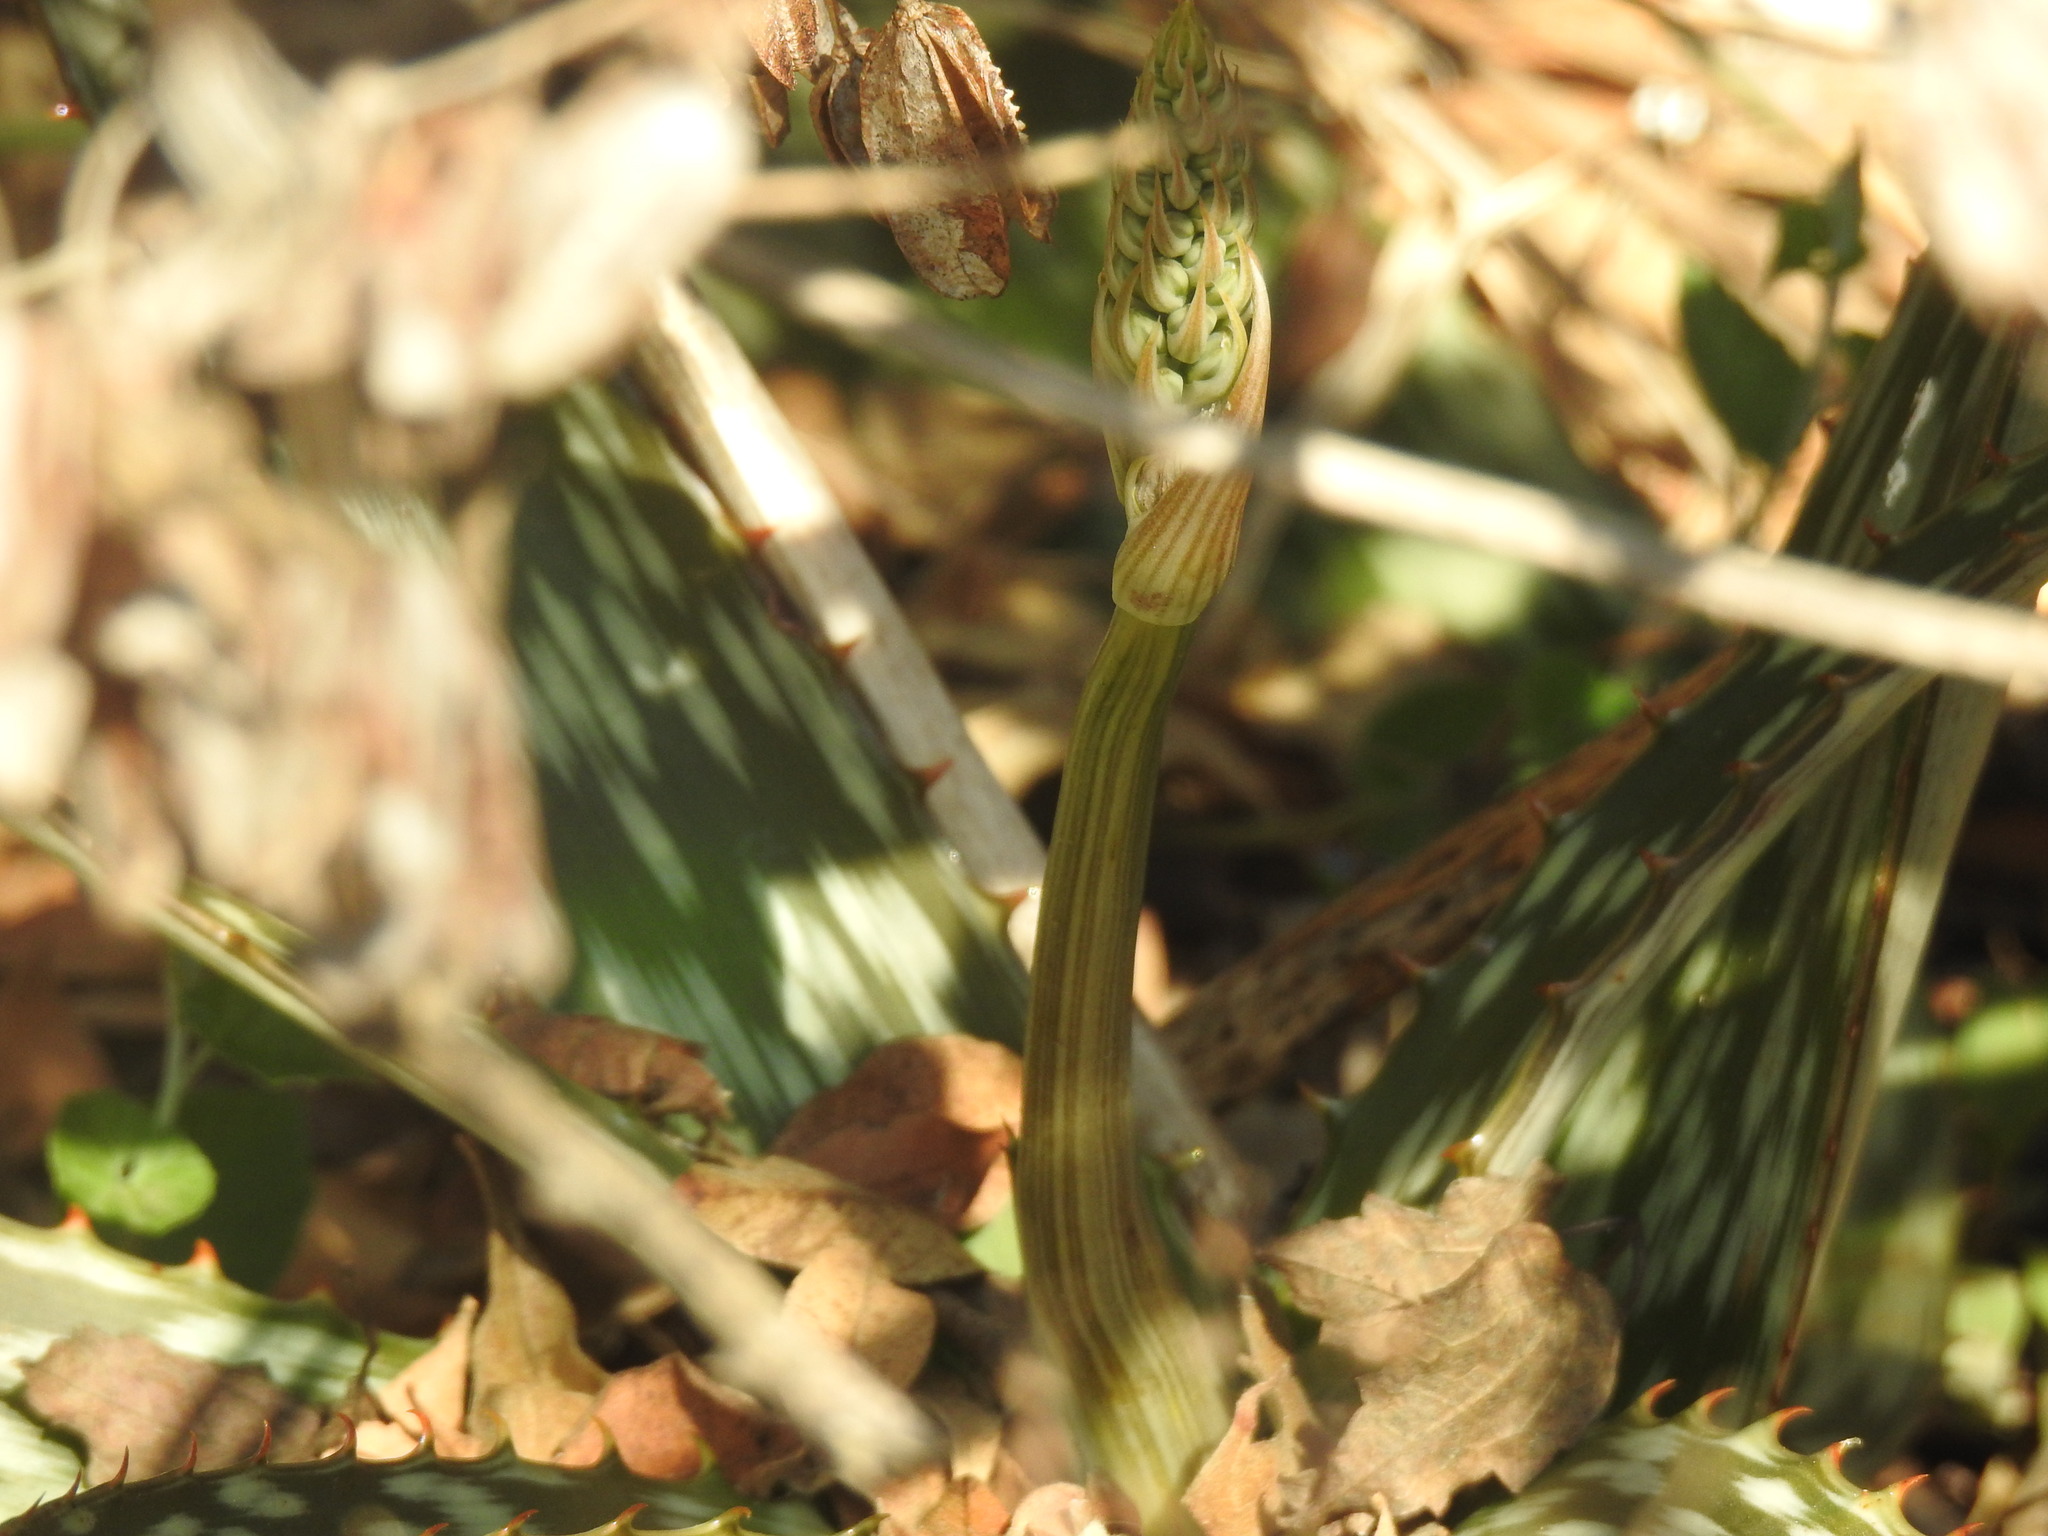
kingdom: Plantae
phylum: Tracheophyta
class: Liliopsida
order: Asparagales
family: Asphodelaceae
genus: Aloe
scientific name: Aloe davyana
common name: Spotted aloe
